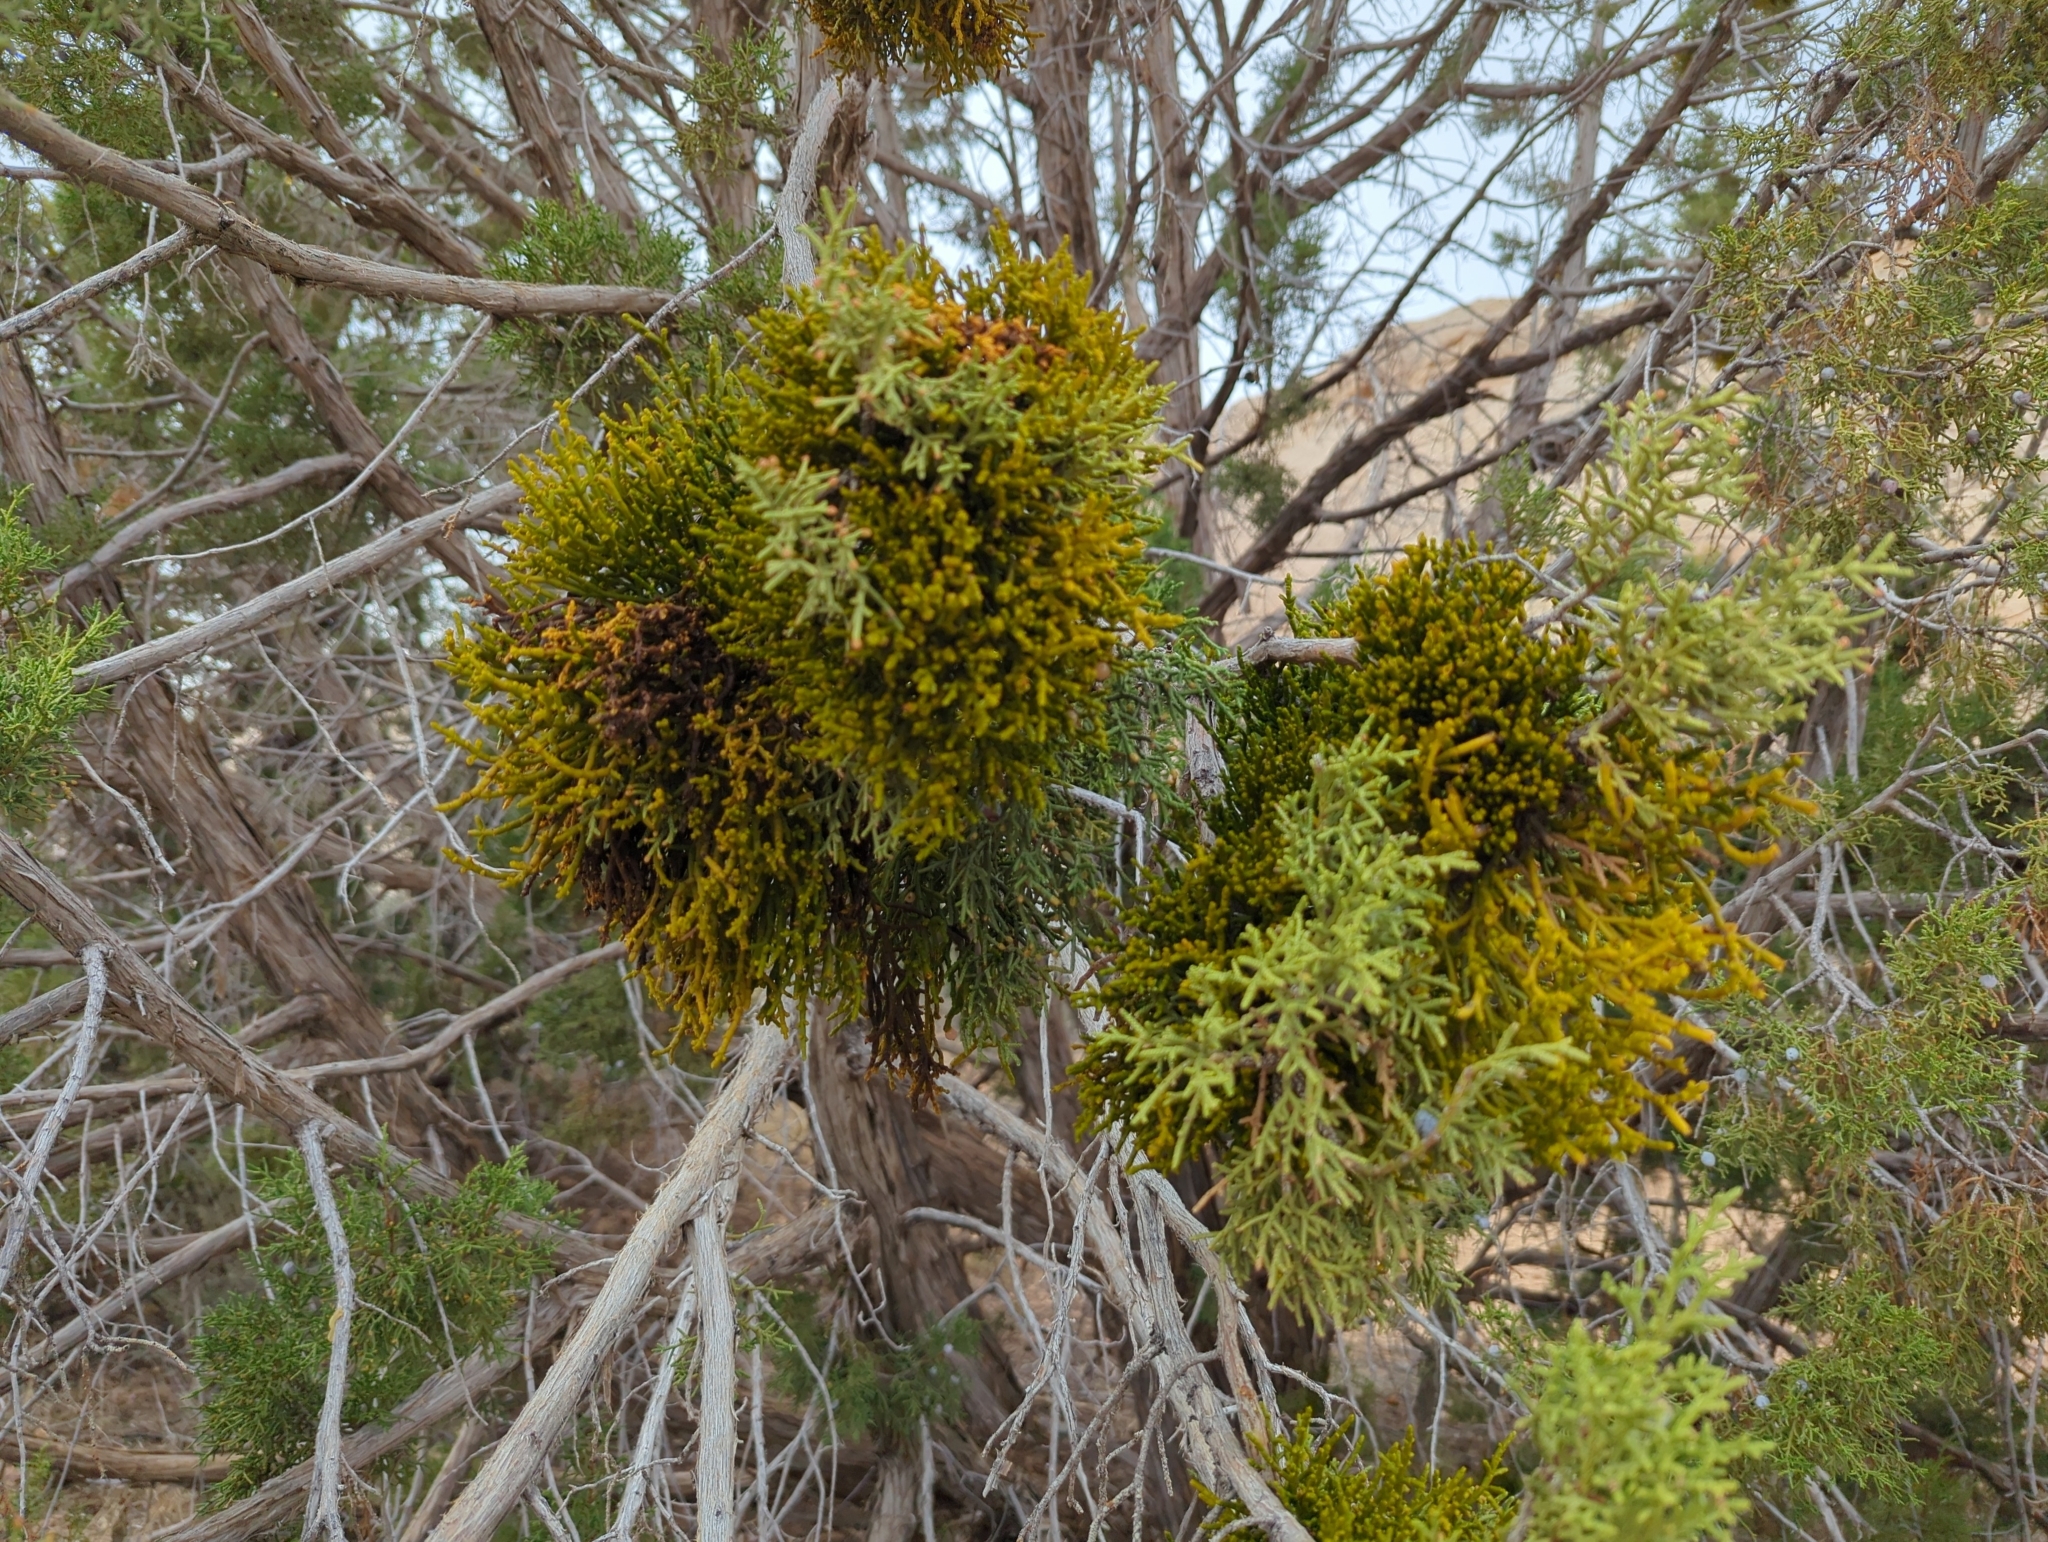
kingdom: Plantae
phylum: Tracheophyta
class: Magnoliopsida
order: Santalales
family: Viscaceae
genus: Phoradendron
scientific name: Phoradendron juniperinum
